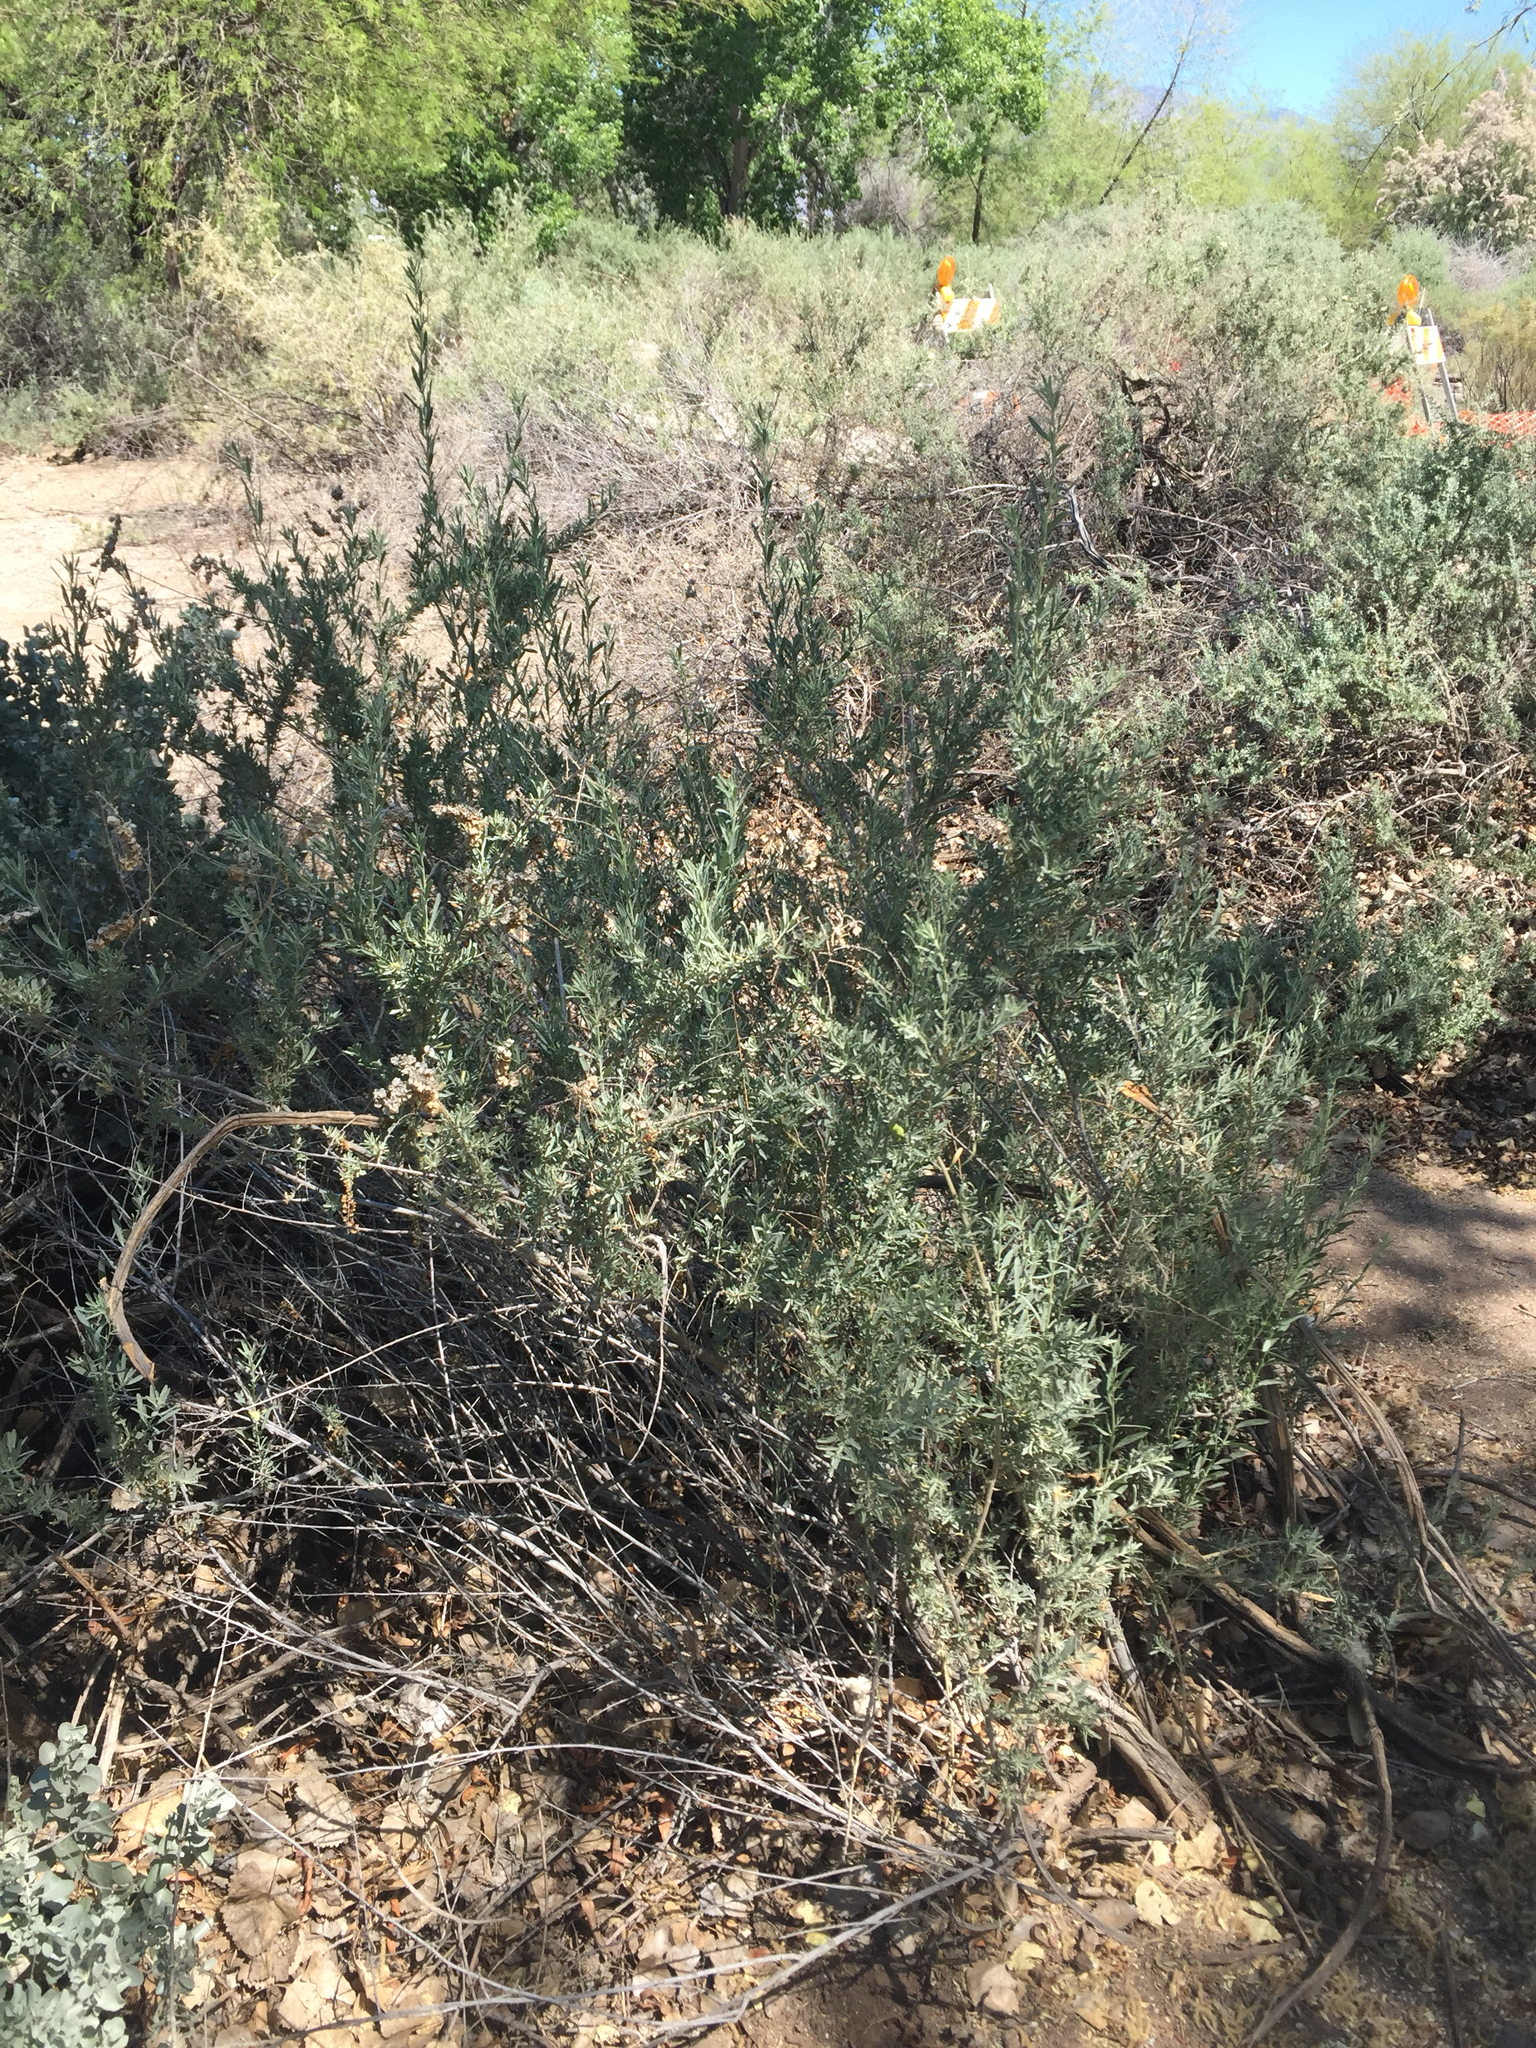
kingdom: Plantae
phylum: Tracheophyta
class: Magnoliopsida
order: Caryophyllales
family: Amaranthaceae
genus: Atriplex
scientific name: Atriplex canescens
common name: Four-wing saltbush
